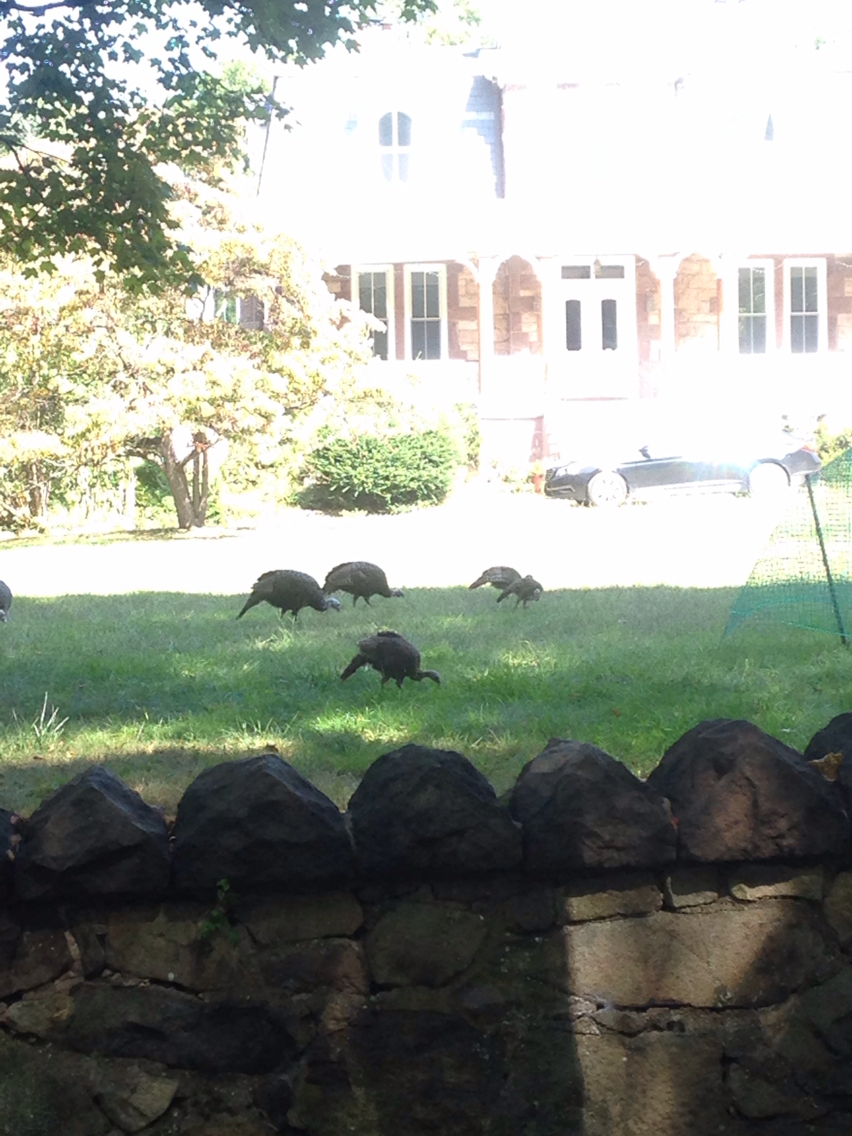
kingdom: Animalia
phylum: Chordata
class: Aves
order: Galliformes
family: Phasianidae
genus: Meleagris
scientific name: Meleagris gallopavo
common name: Wild turkey
